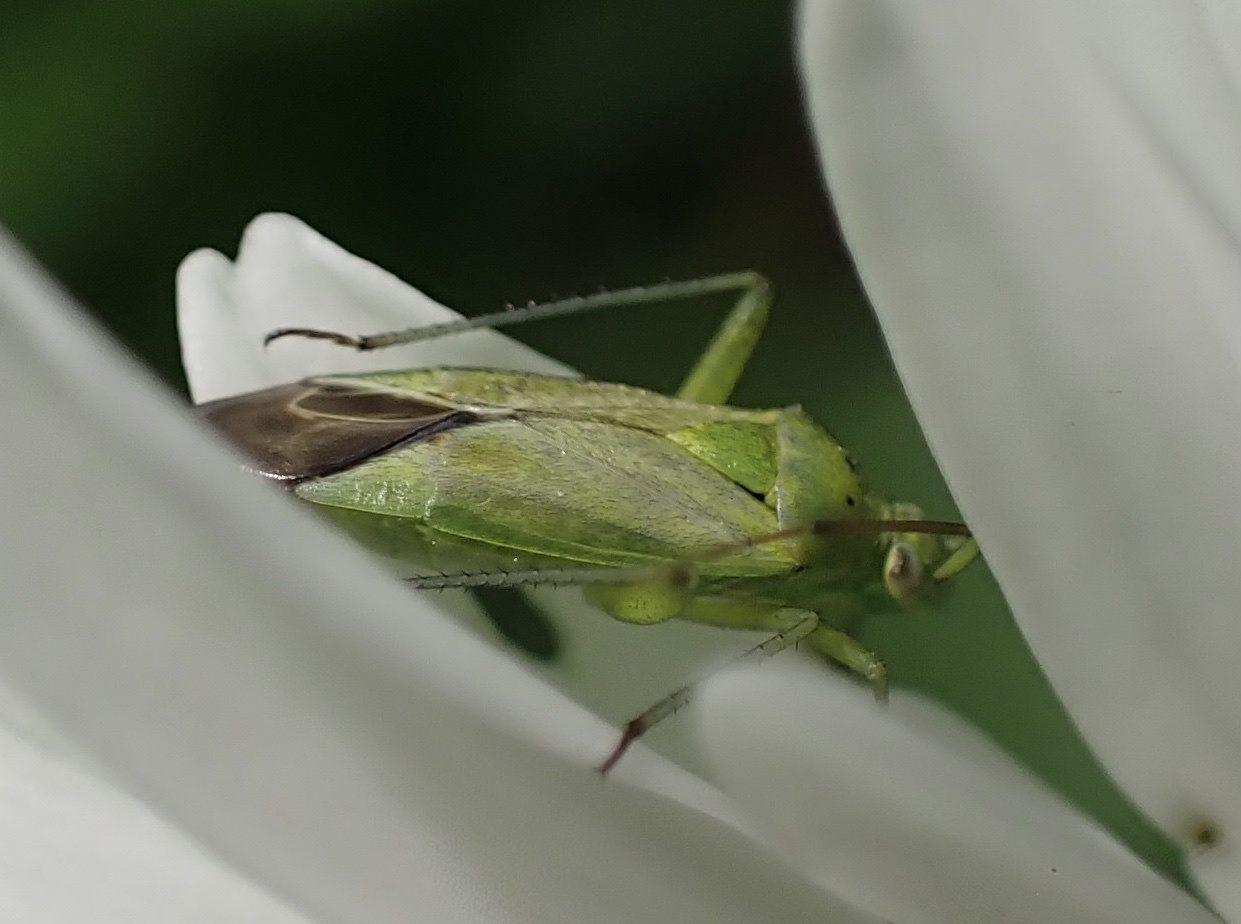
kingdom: Animalia
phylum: Arthropoda
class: Insecta
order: Hemiptera
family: Miridae
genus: Closterotomus
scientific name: Closterotomus norvegicus
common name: Plant bug
